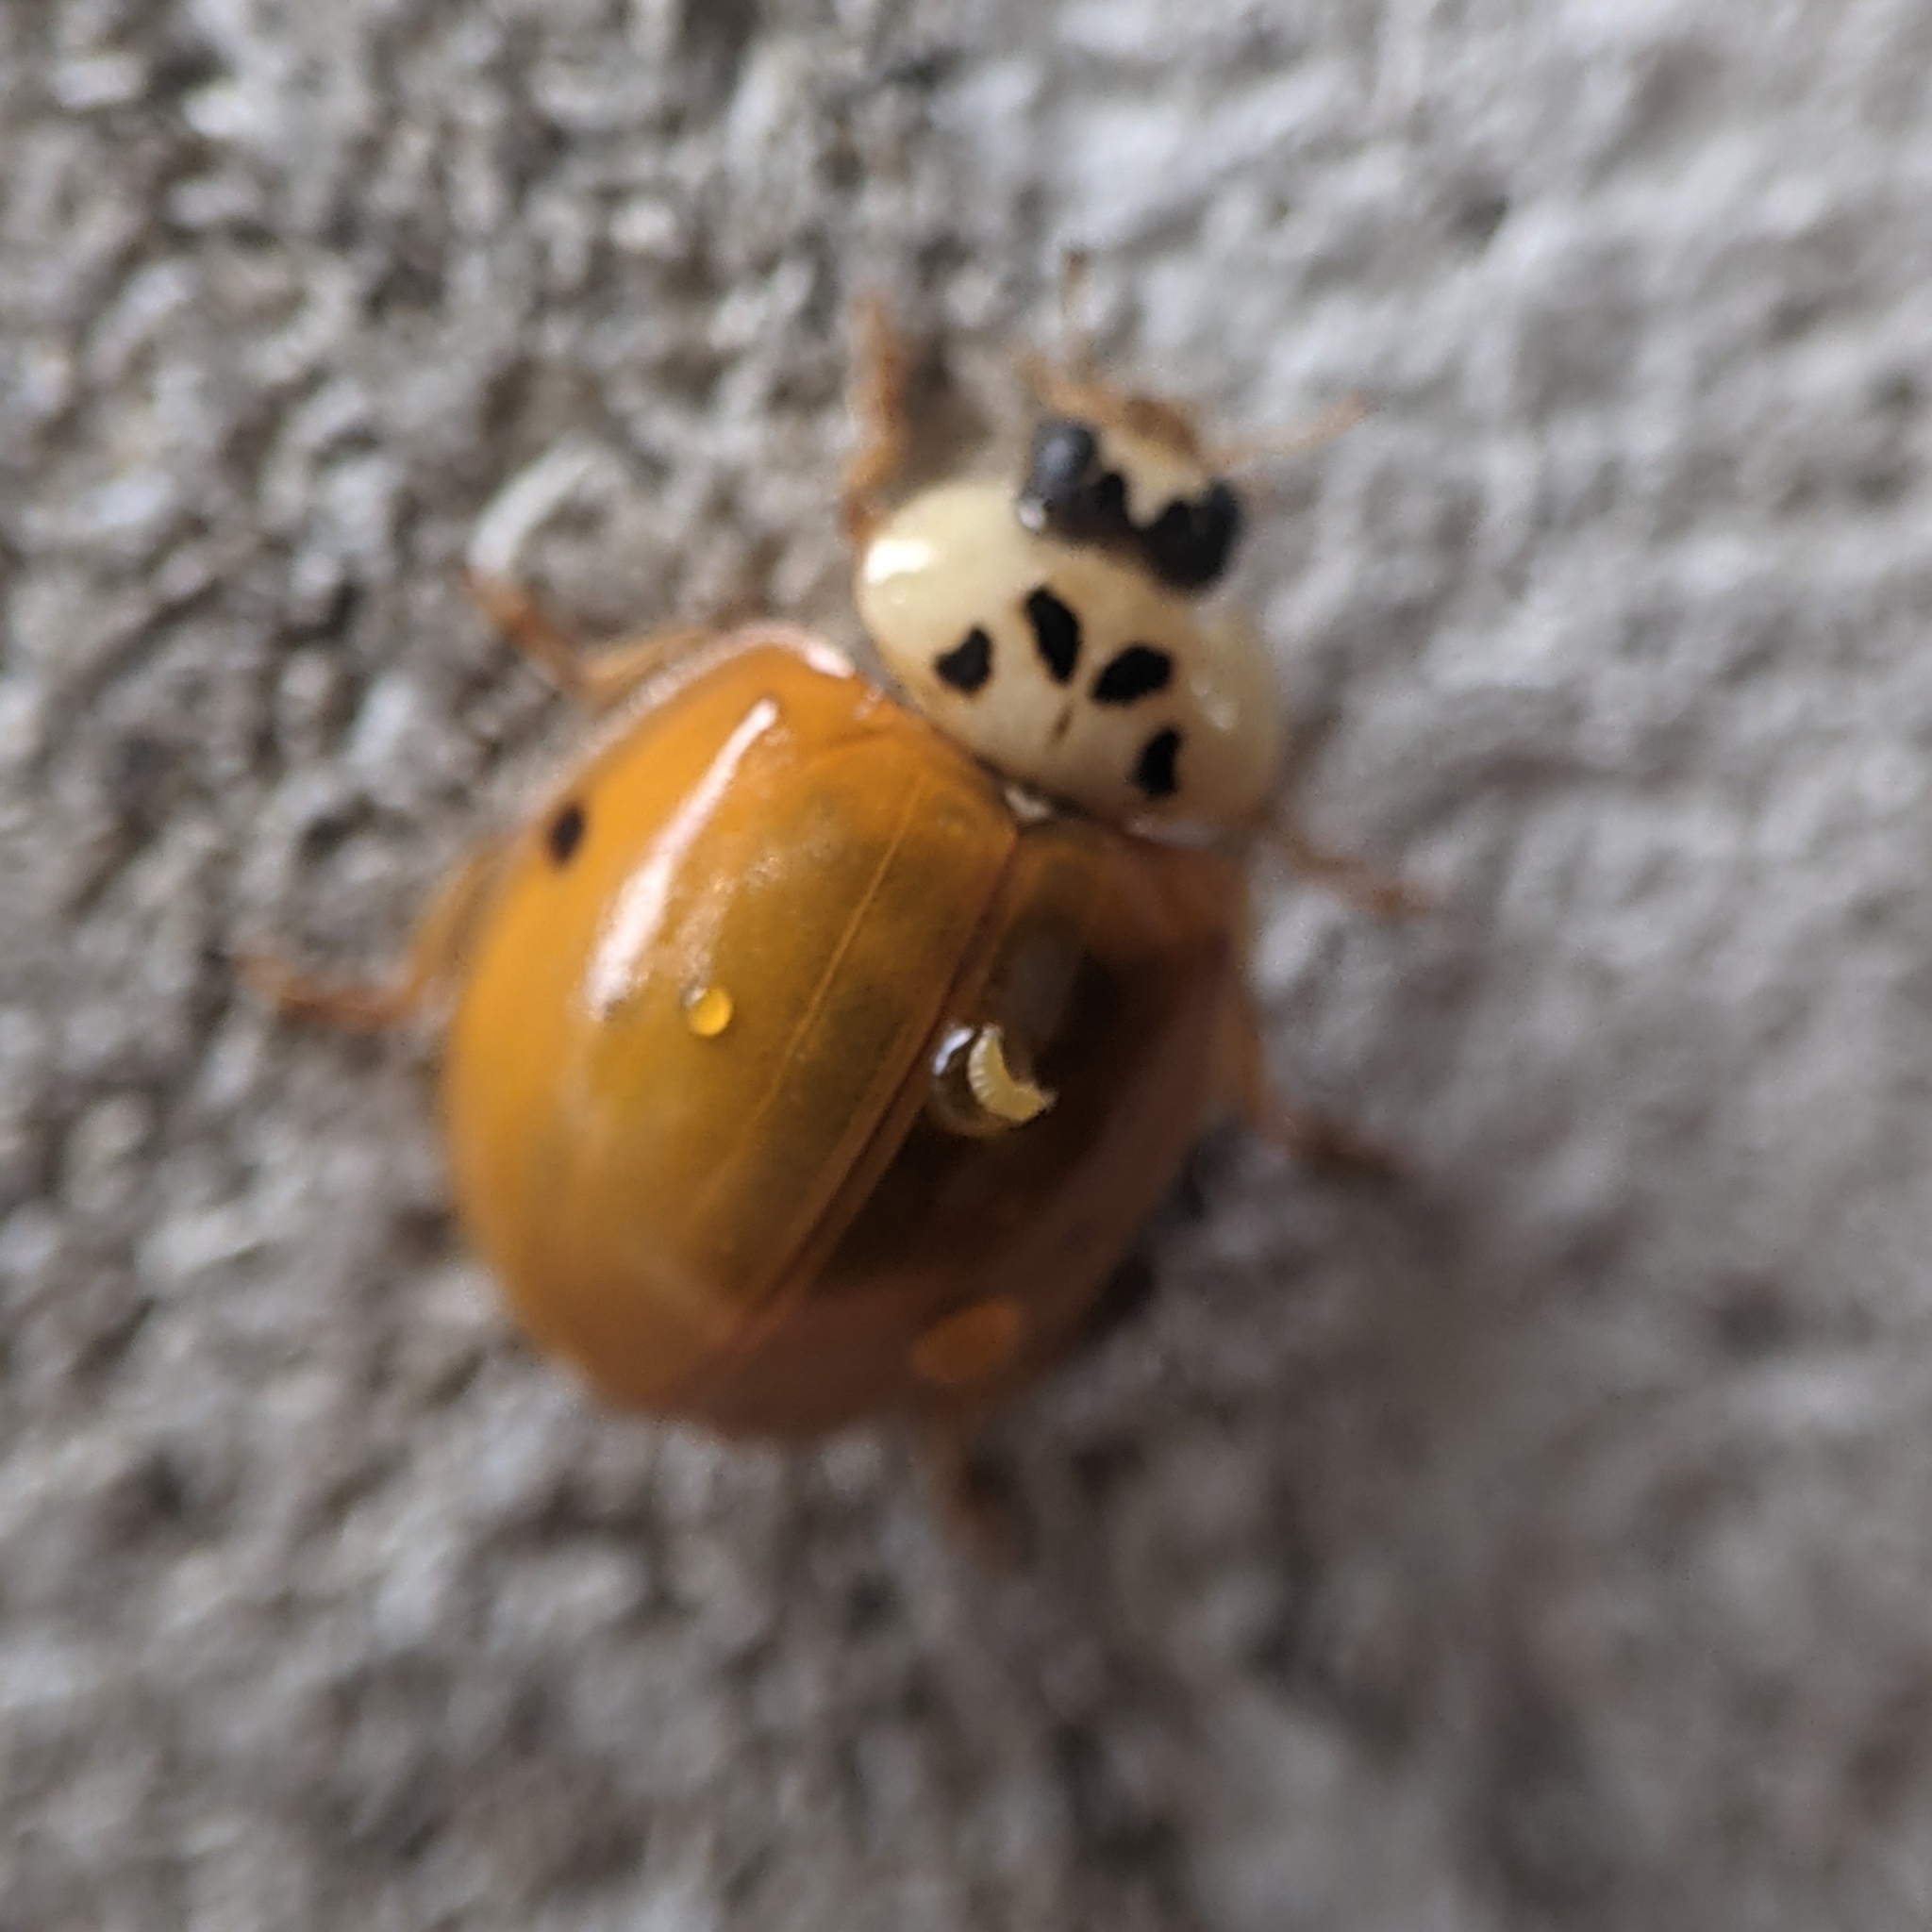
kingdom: Animalia
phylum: Arthropoda
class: Insecta
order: Coleoptera
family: Coccinellidae
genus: Harmonia
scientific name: Harmonia axyridis
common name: Harlequin ladybird
